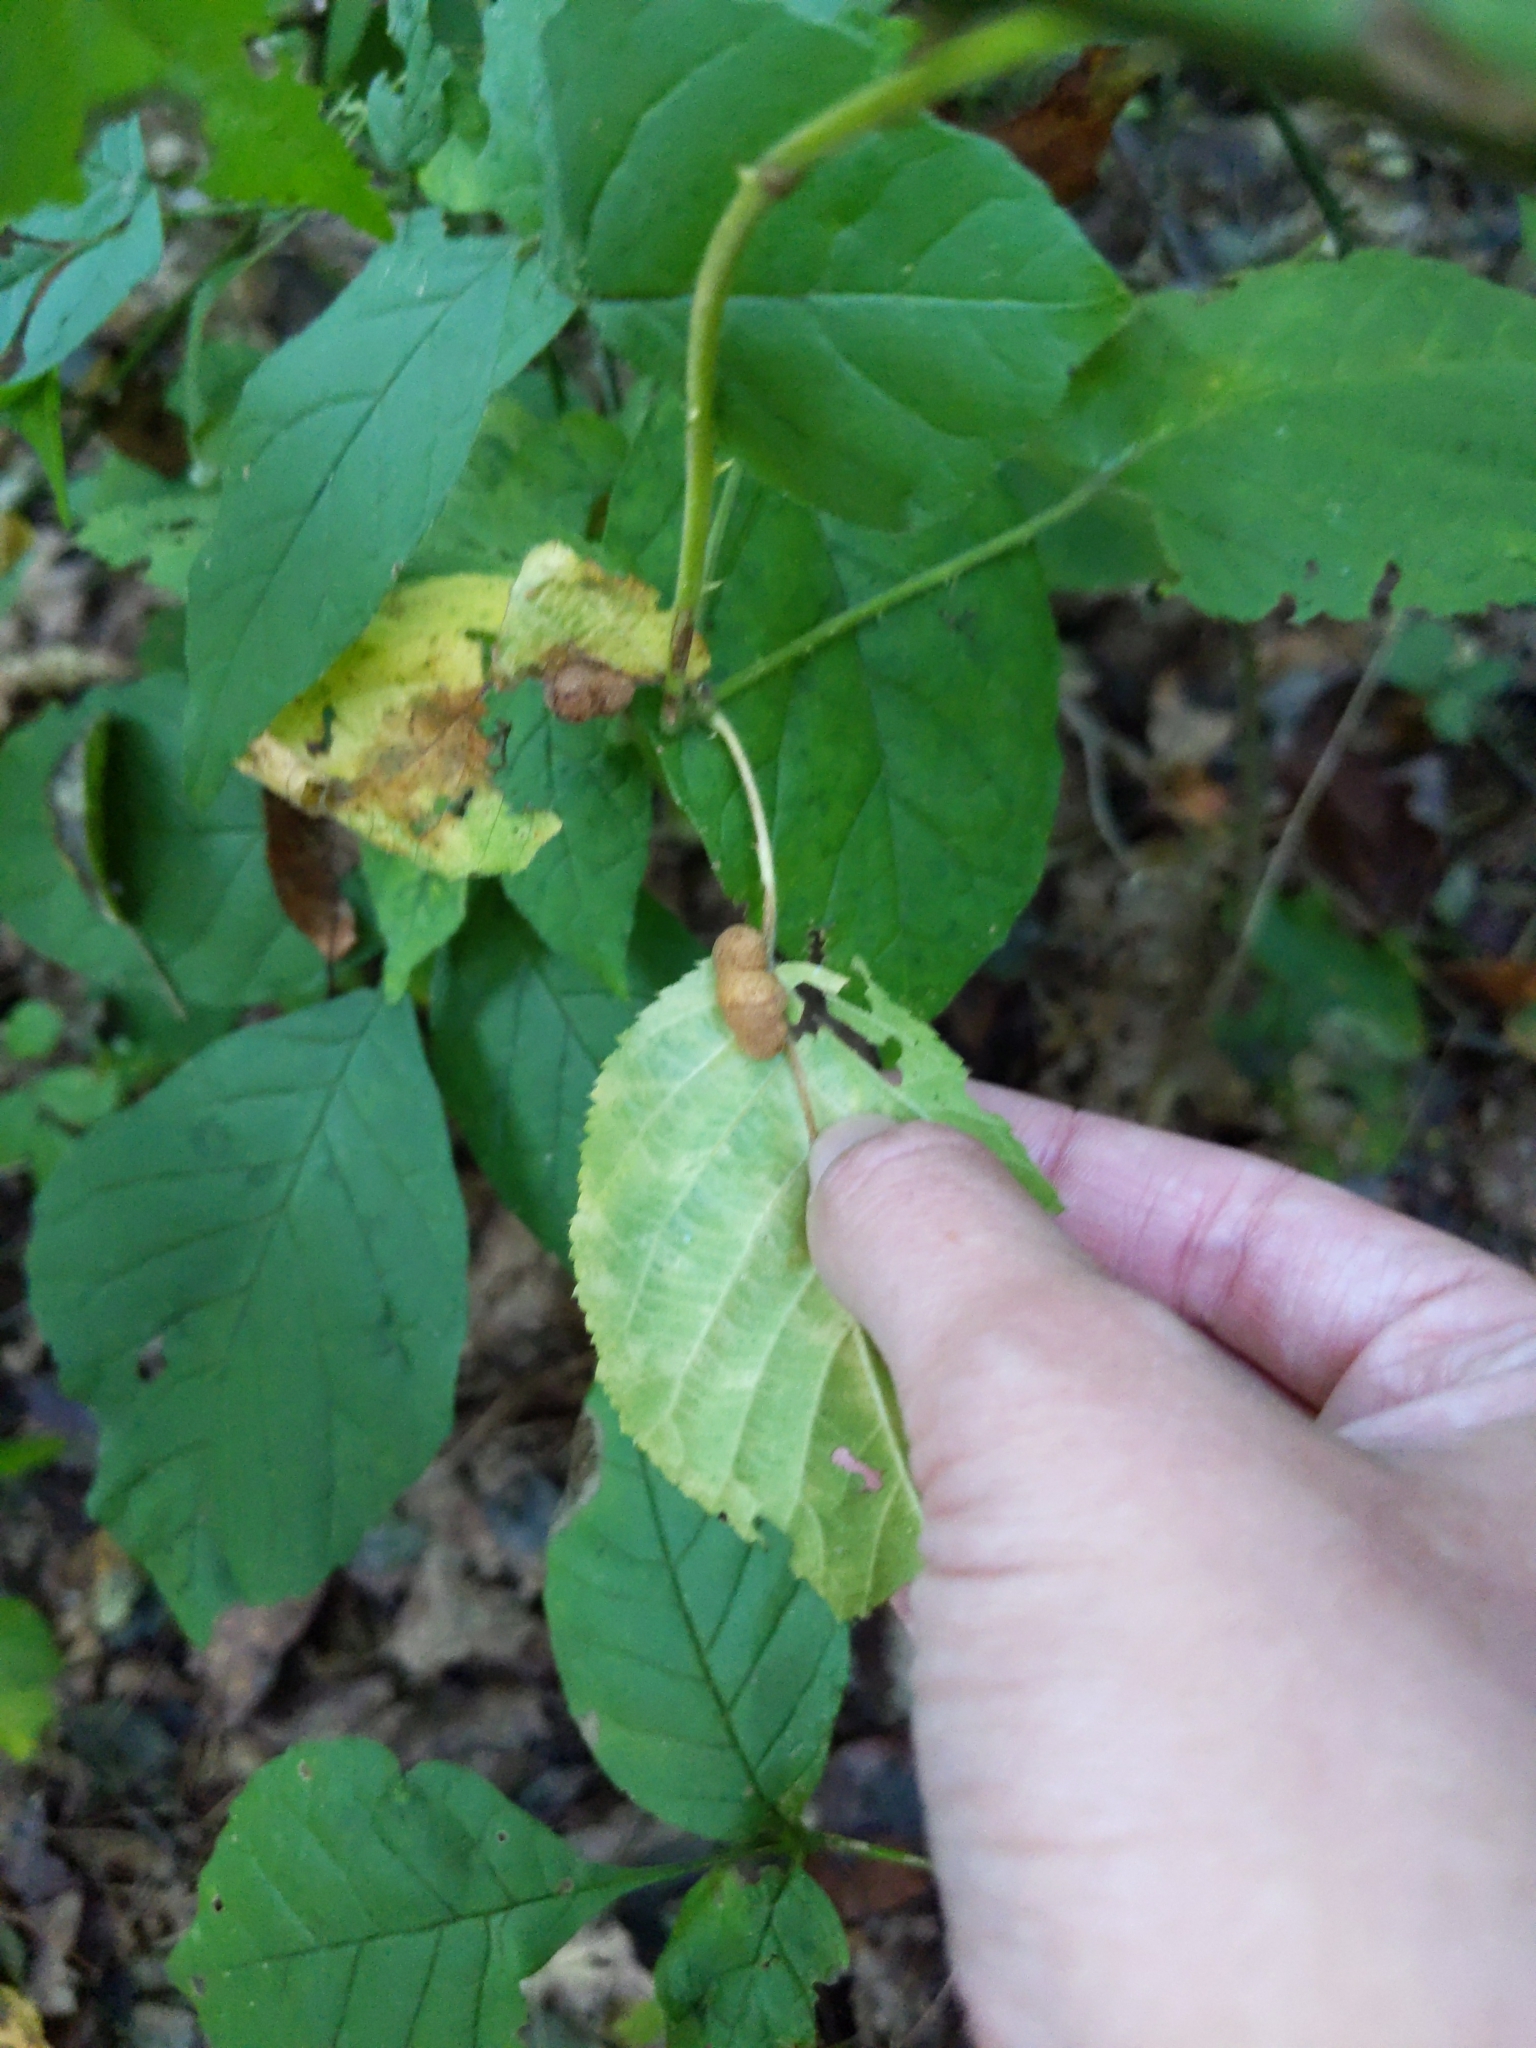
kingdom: Animalia
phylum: Arthropoda
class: Insecta
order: Diptera
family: Cecidomyiidae
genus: Neolasioptera
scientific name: Neolasioptera farinosa
